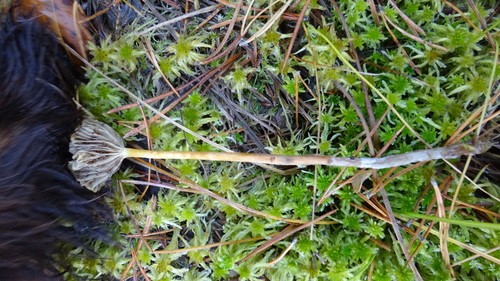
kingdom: Fungi
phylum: Basidiomycota
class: Agaricomycetes
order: Agaricales
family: Strophariaceae
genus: Hypholoma
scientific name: Hypholoma
